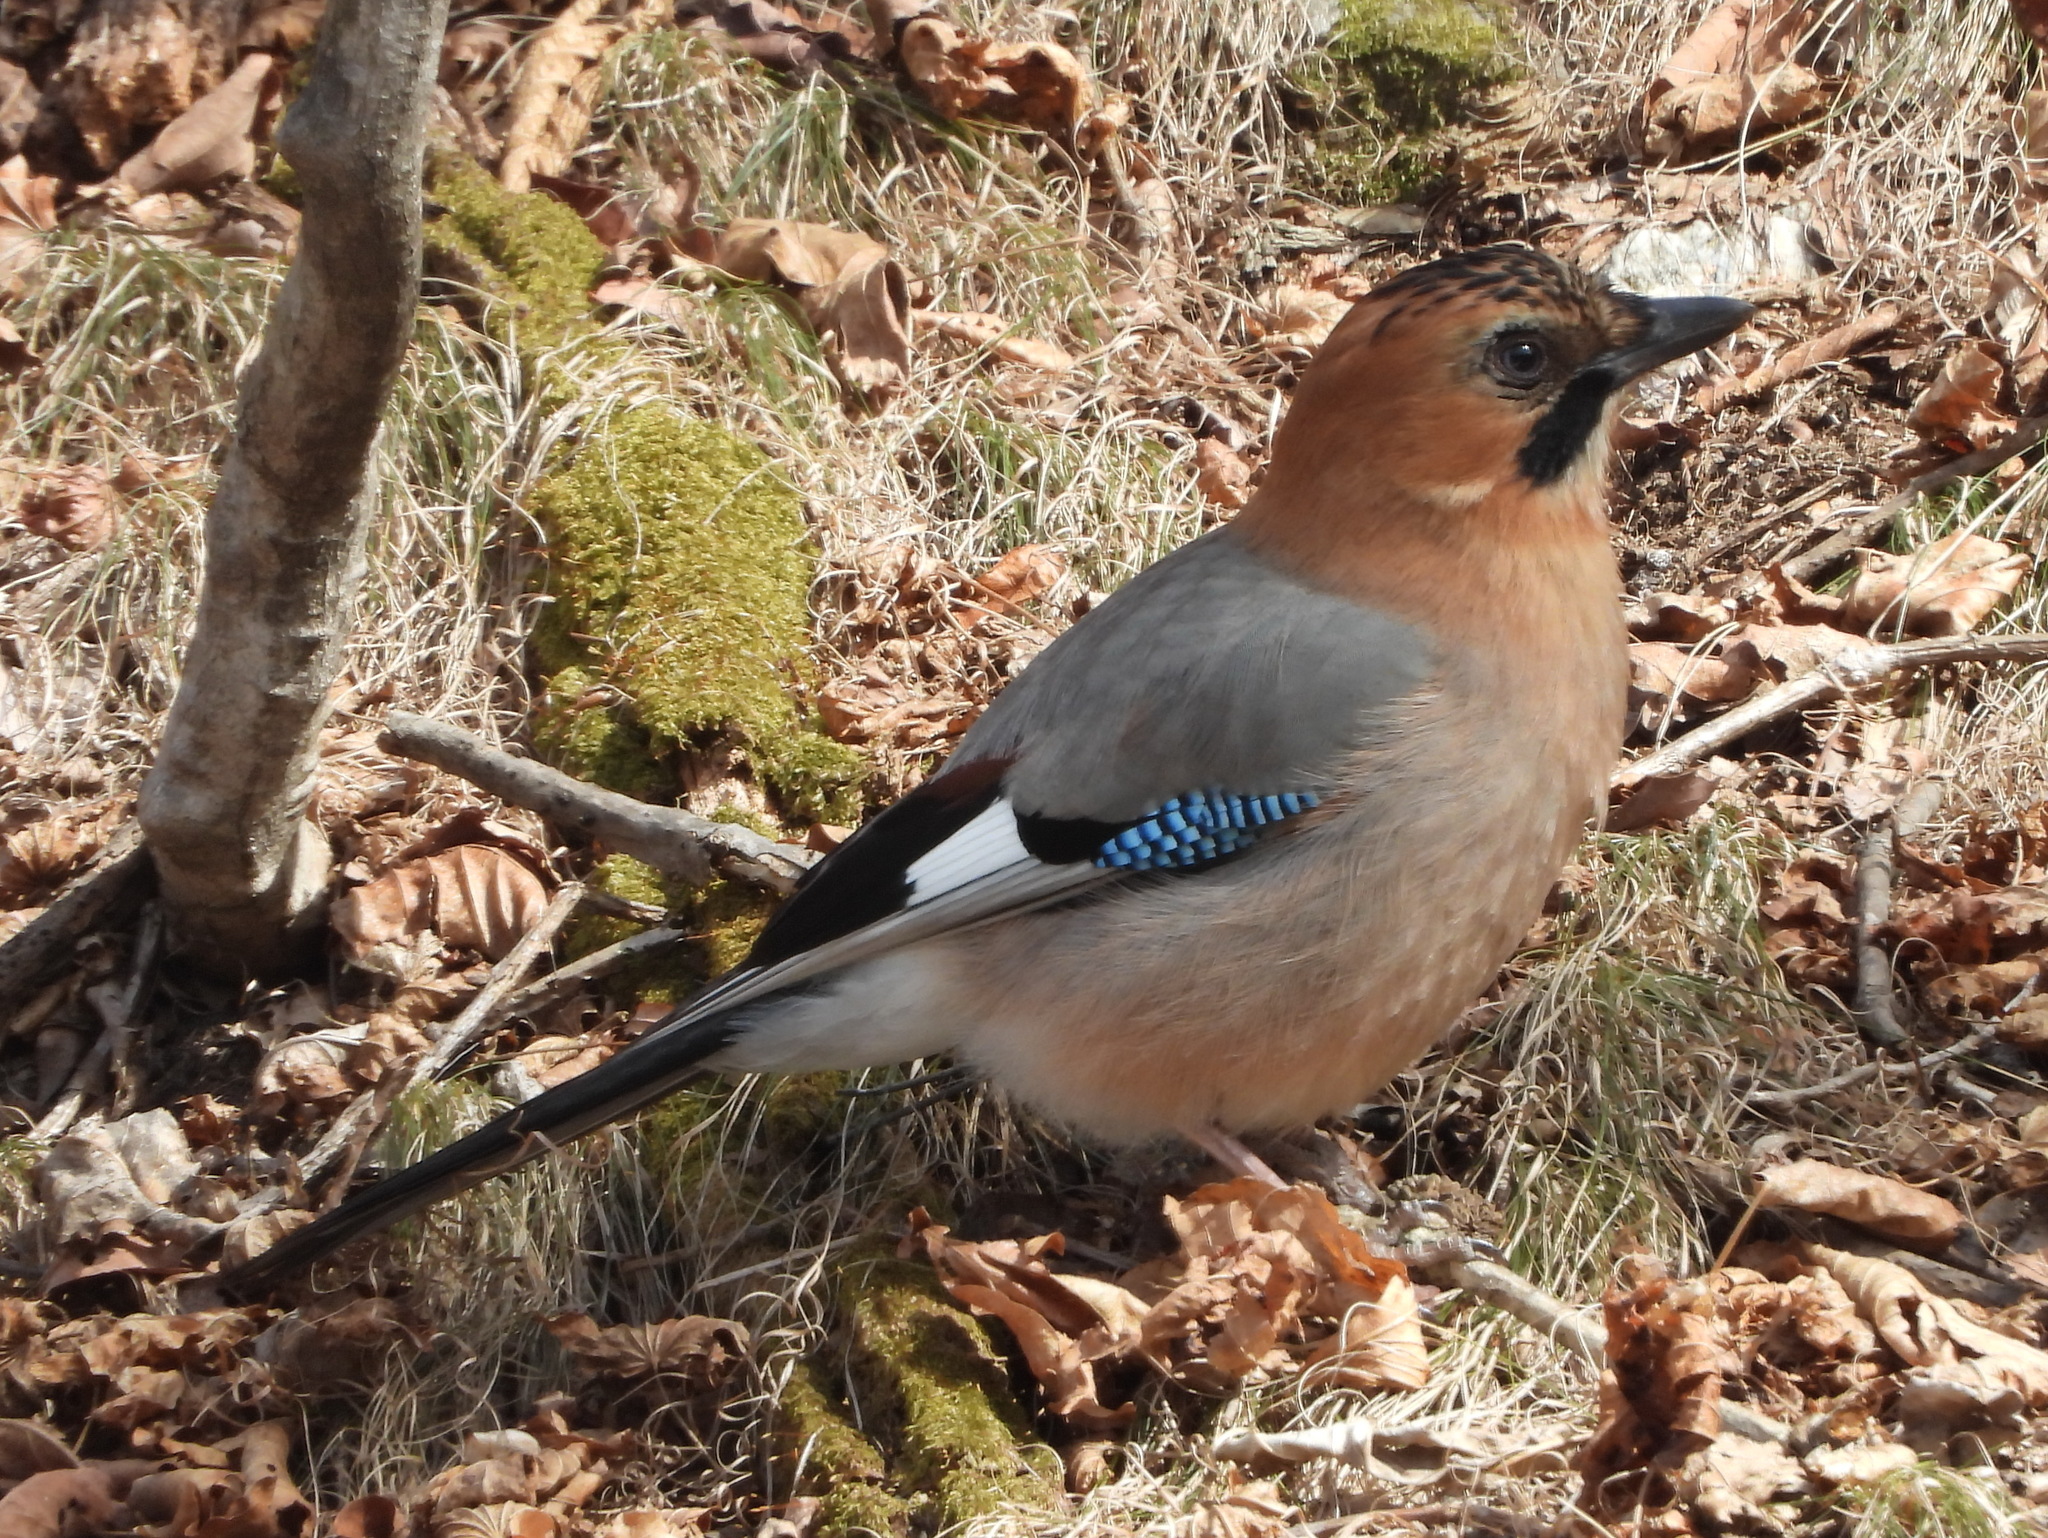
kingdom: Animalia
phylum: Chordata
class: Aves
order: Passeriformes
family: Corvidae
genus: Garrulus
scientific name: Garrulus glandarius
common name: Eurasian jay
